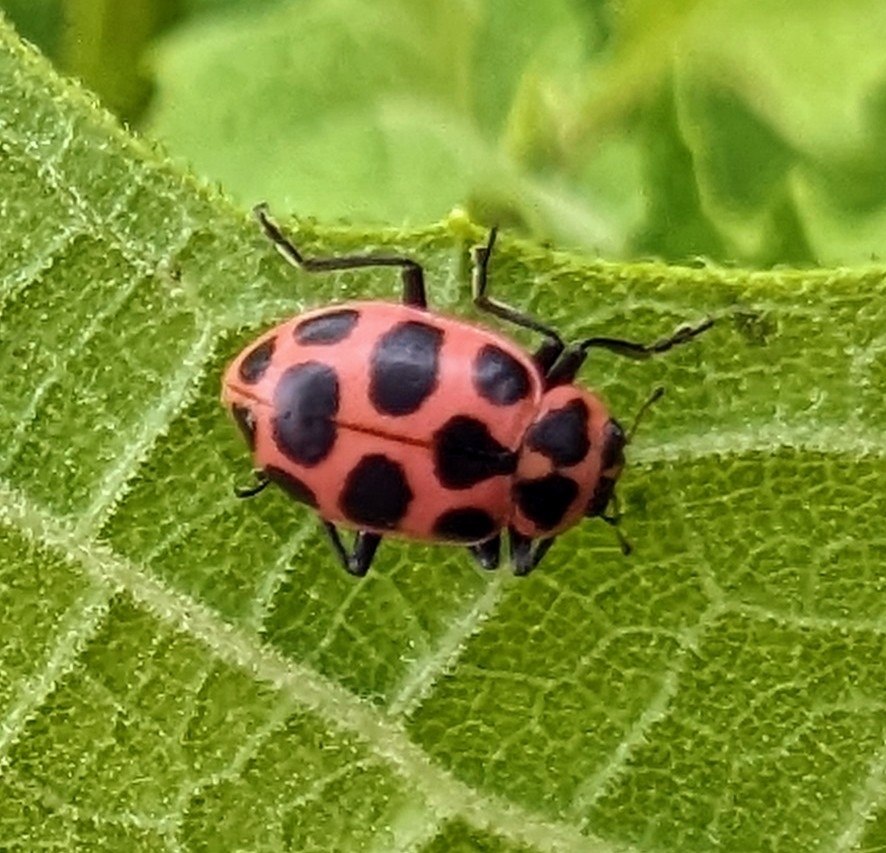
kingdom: Animalia
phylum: Arthropoda
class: Insecta
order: Coleoptera
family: Coccinellidae
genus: Coleomegilla
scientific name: Coleomegilla maculata
